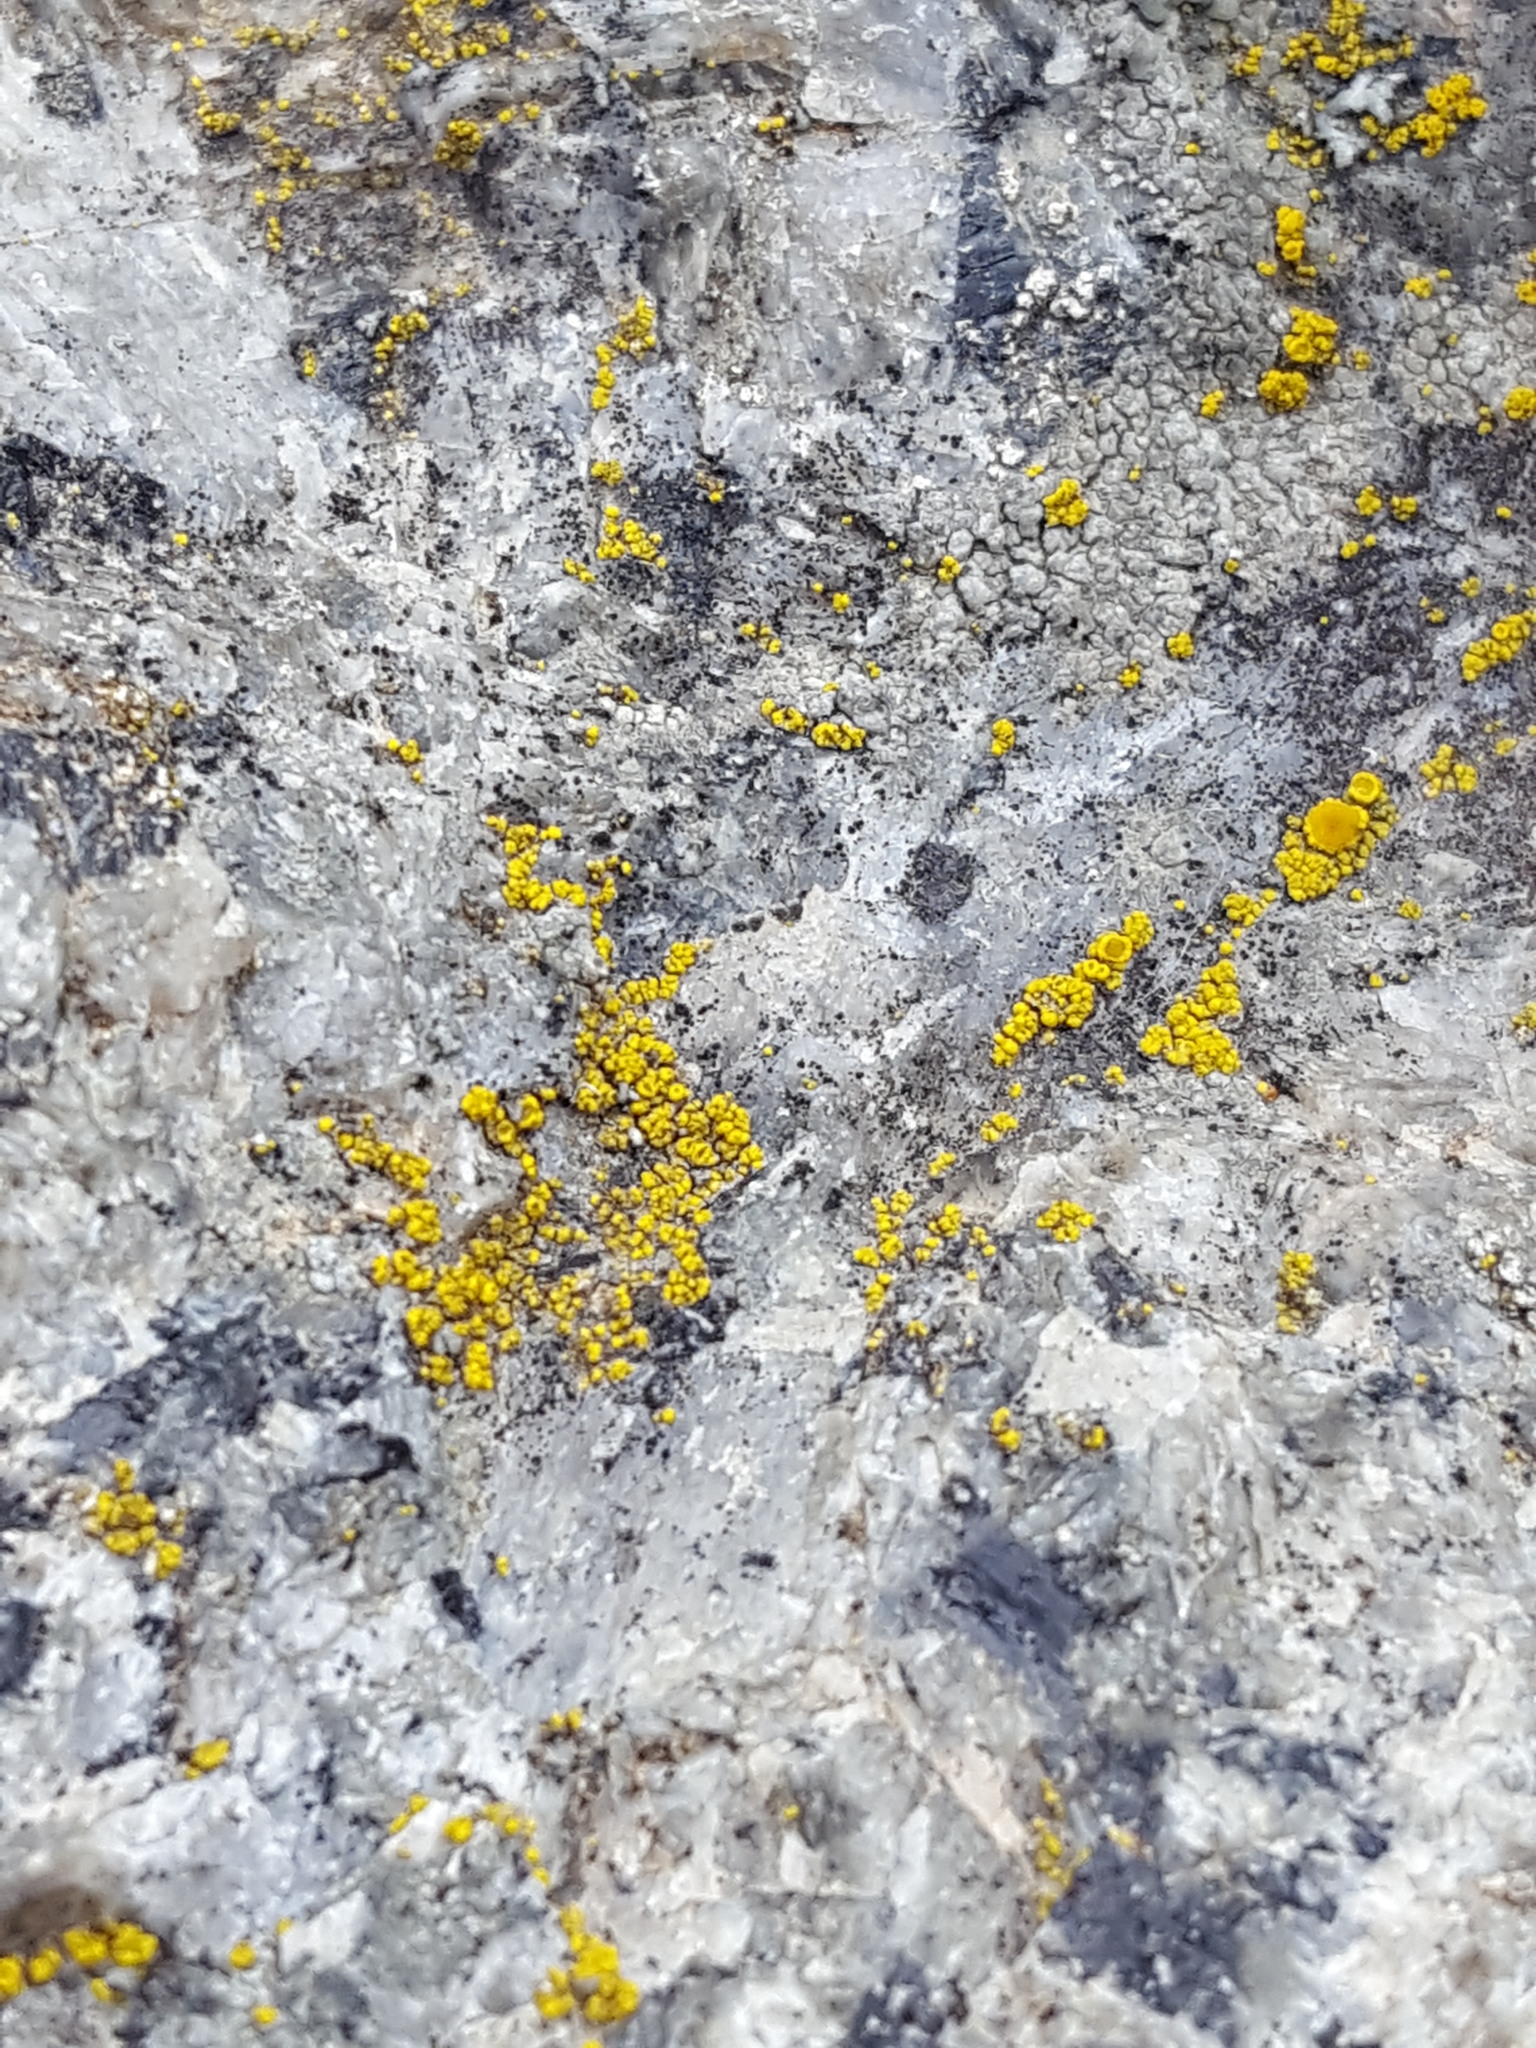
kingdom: Fungi
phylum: Ascomycota
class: Candelariomycetes
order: Candelariales
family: Candelariaceae
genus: Candelariella
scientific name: Candelariella vitellina
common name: Common goldspeck
